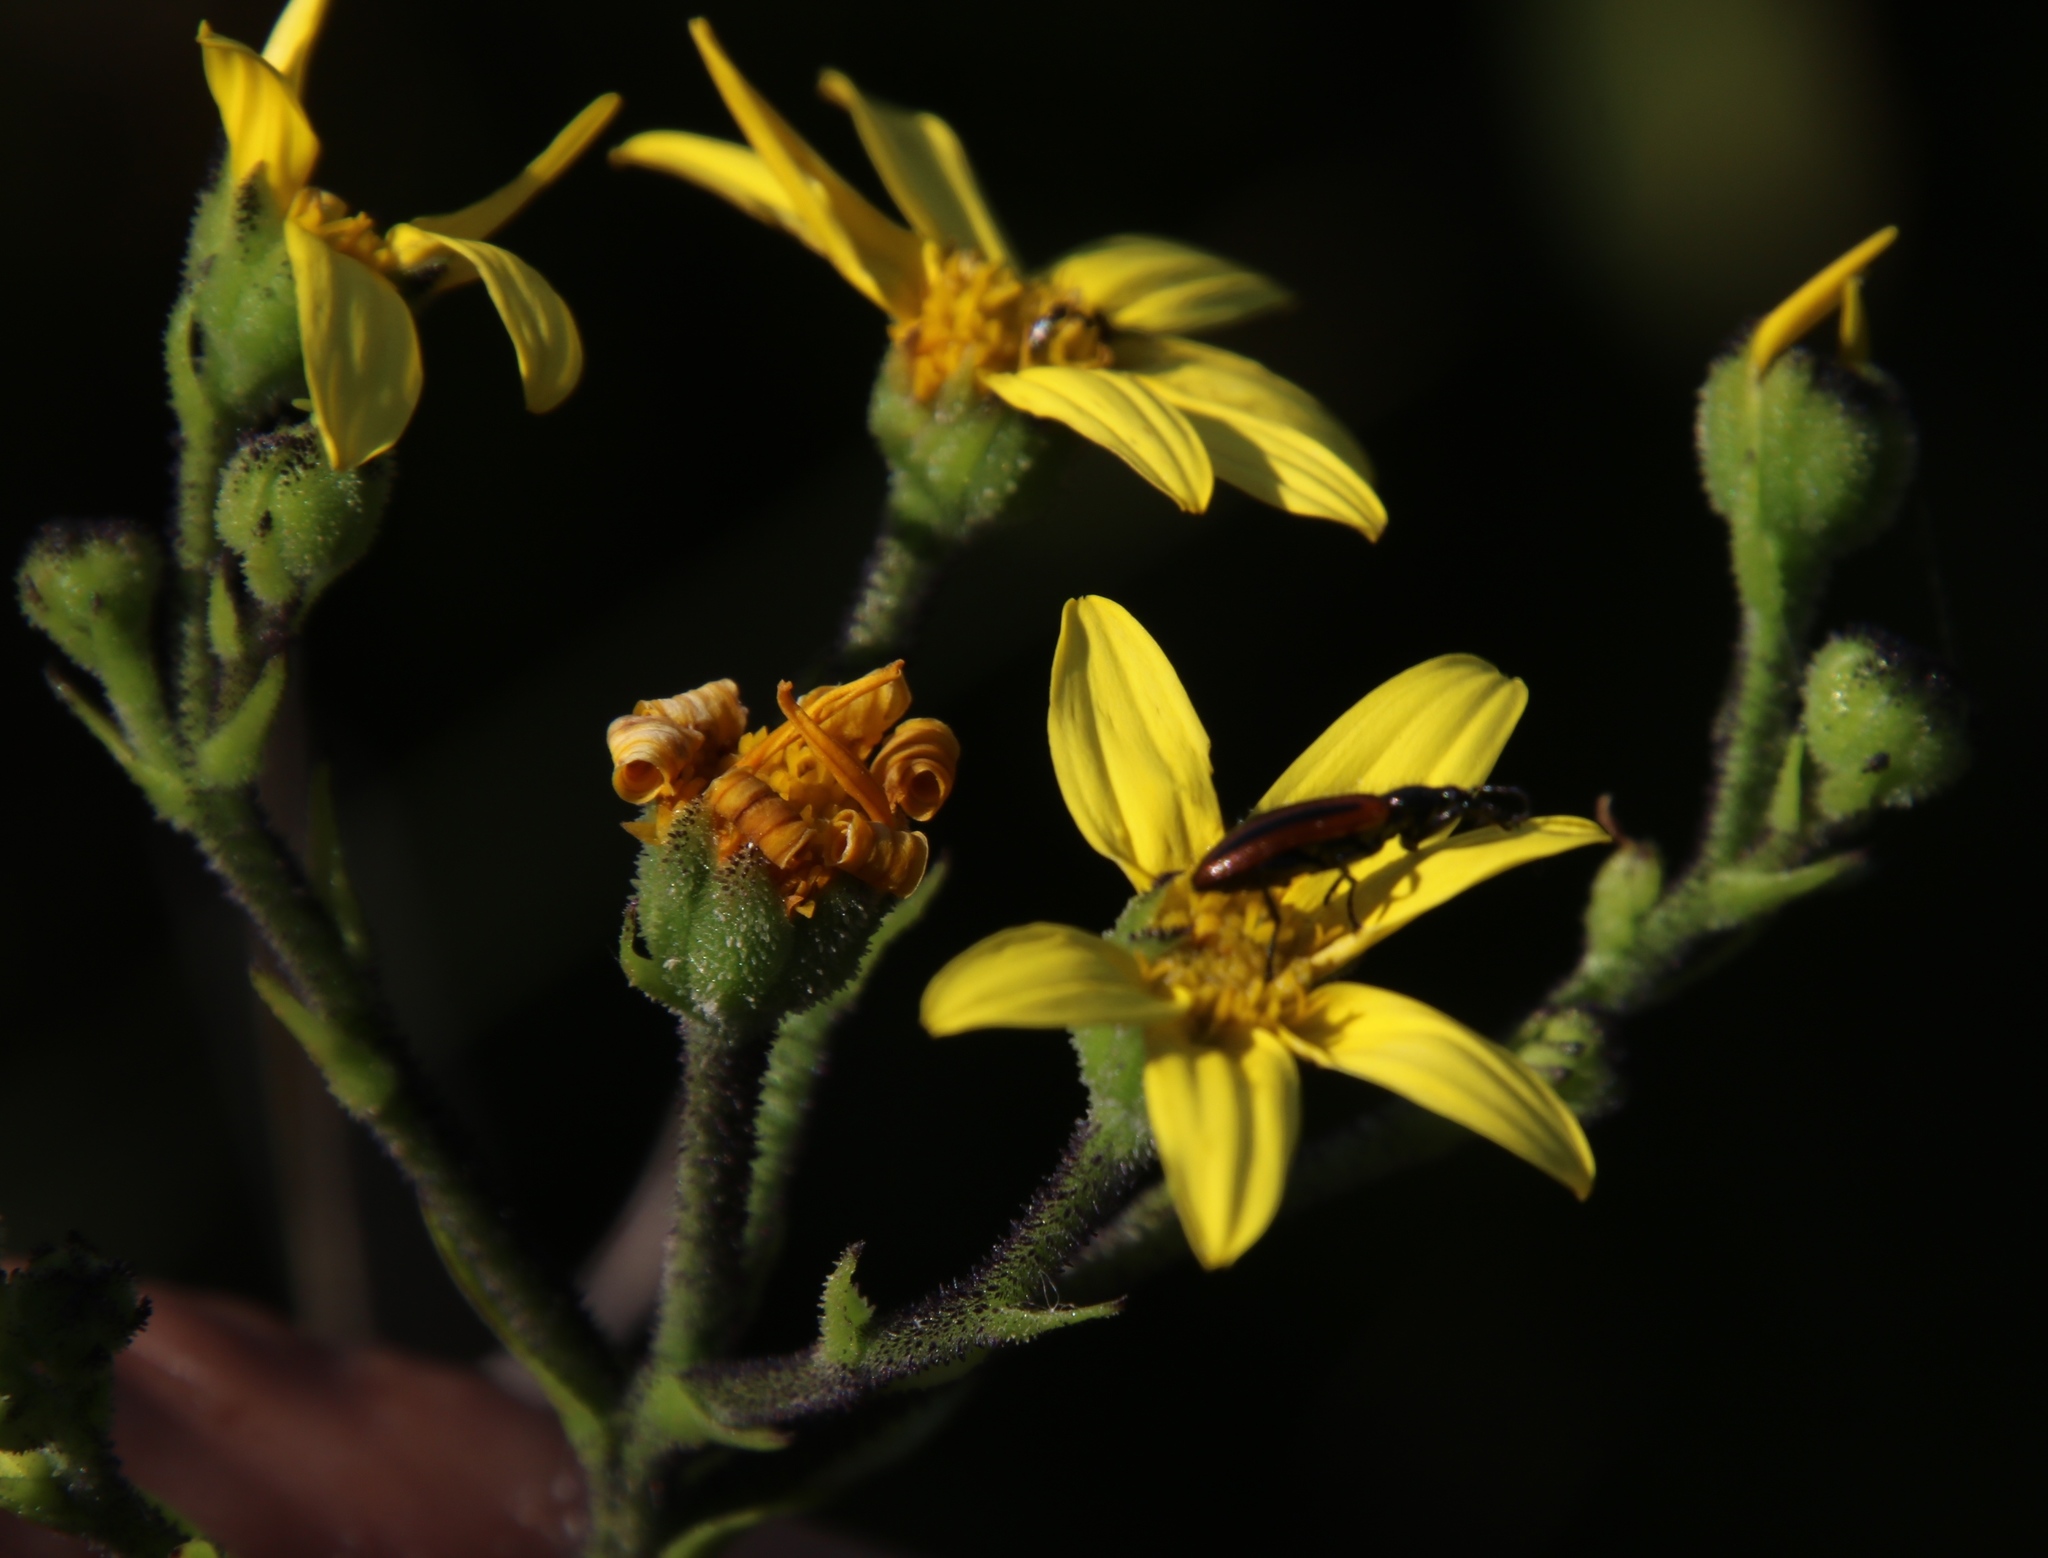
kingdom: Plantae
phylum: Tracheophyta
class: Magnoliopsida
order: Asterales
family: Asteraceae
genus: Osteospermum
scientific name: Osteospermum polygaloides
